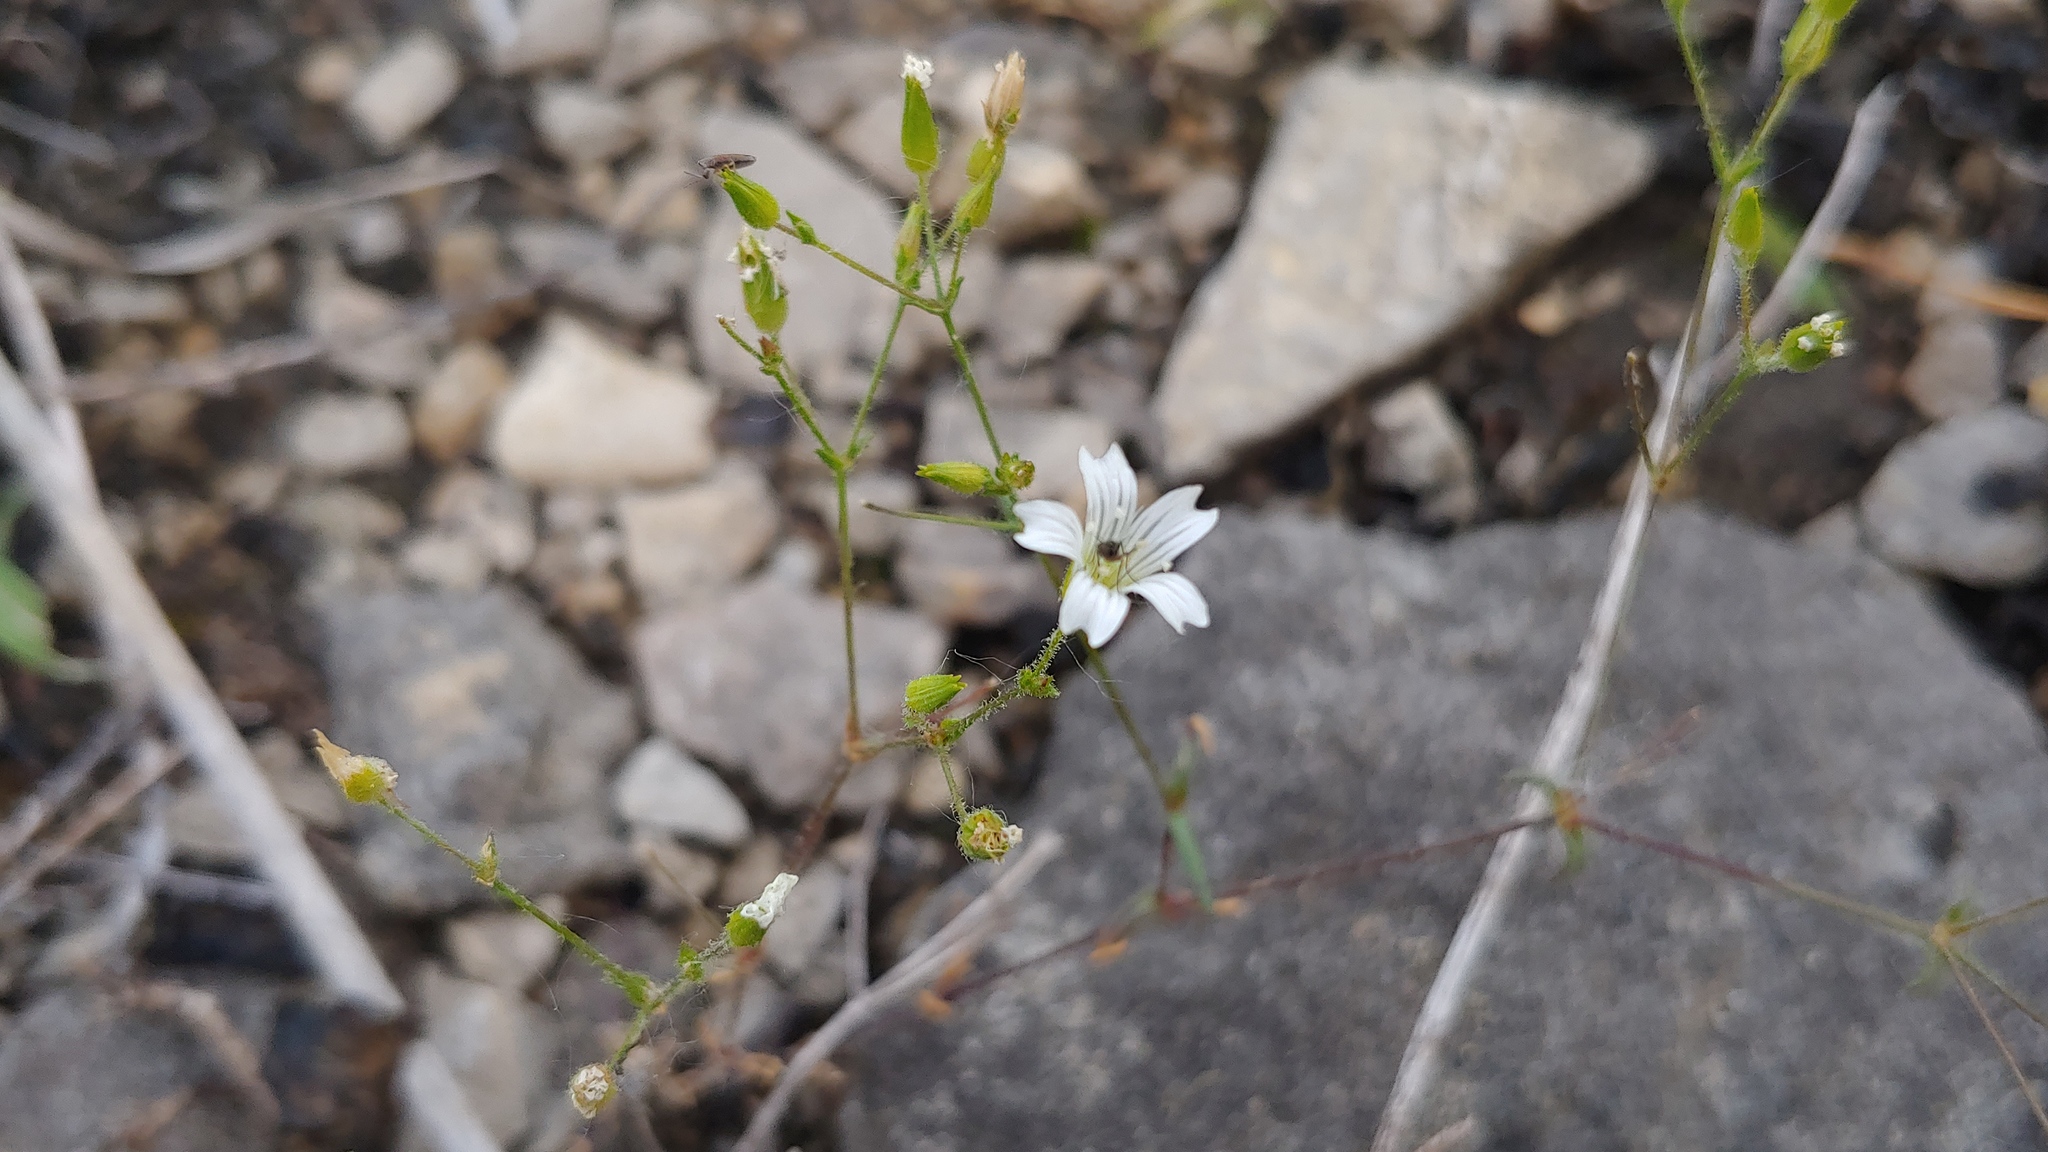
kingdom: Plantae
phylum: Tracheophyta
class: Magnoliopsida
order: Caryophyllales
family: Caryophyllaceae
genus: Mononeuria
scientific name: Mononeuria patula
